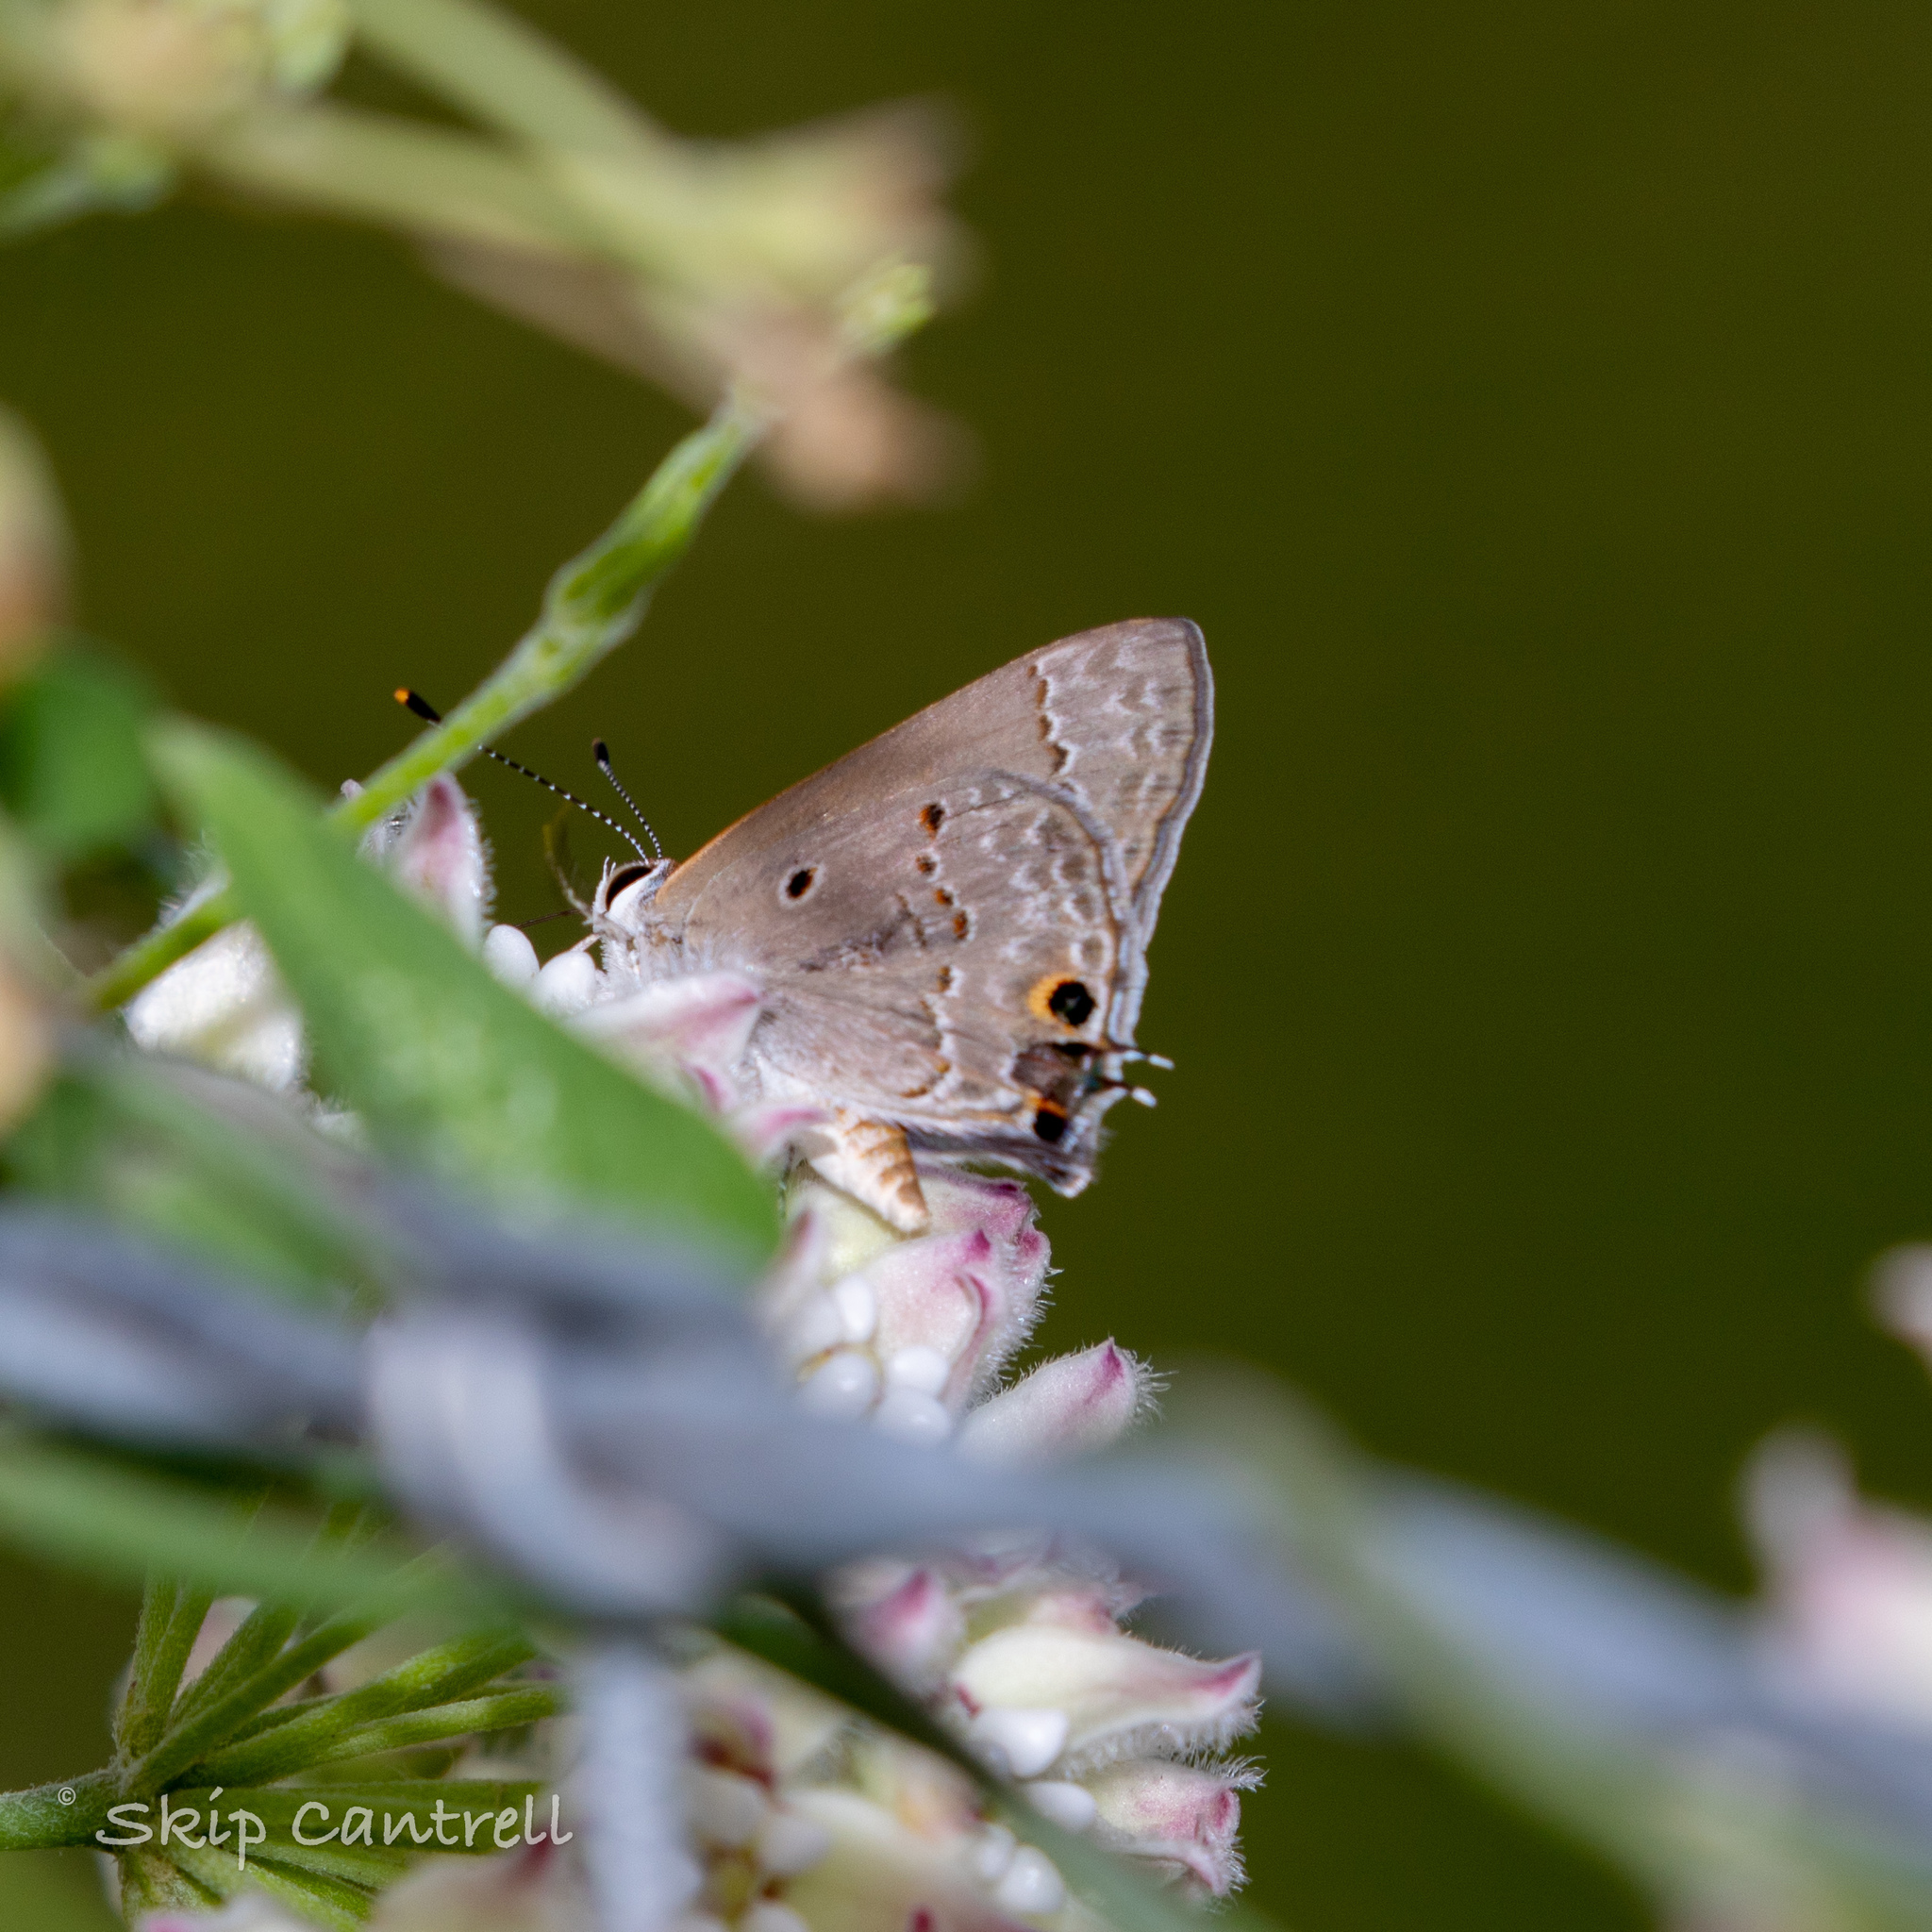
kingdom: Animalia
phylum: Arthropoda
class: Insecta
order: Lepidoptera
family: Lycaenidae
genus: Callicista
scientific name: Callicista columella
